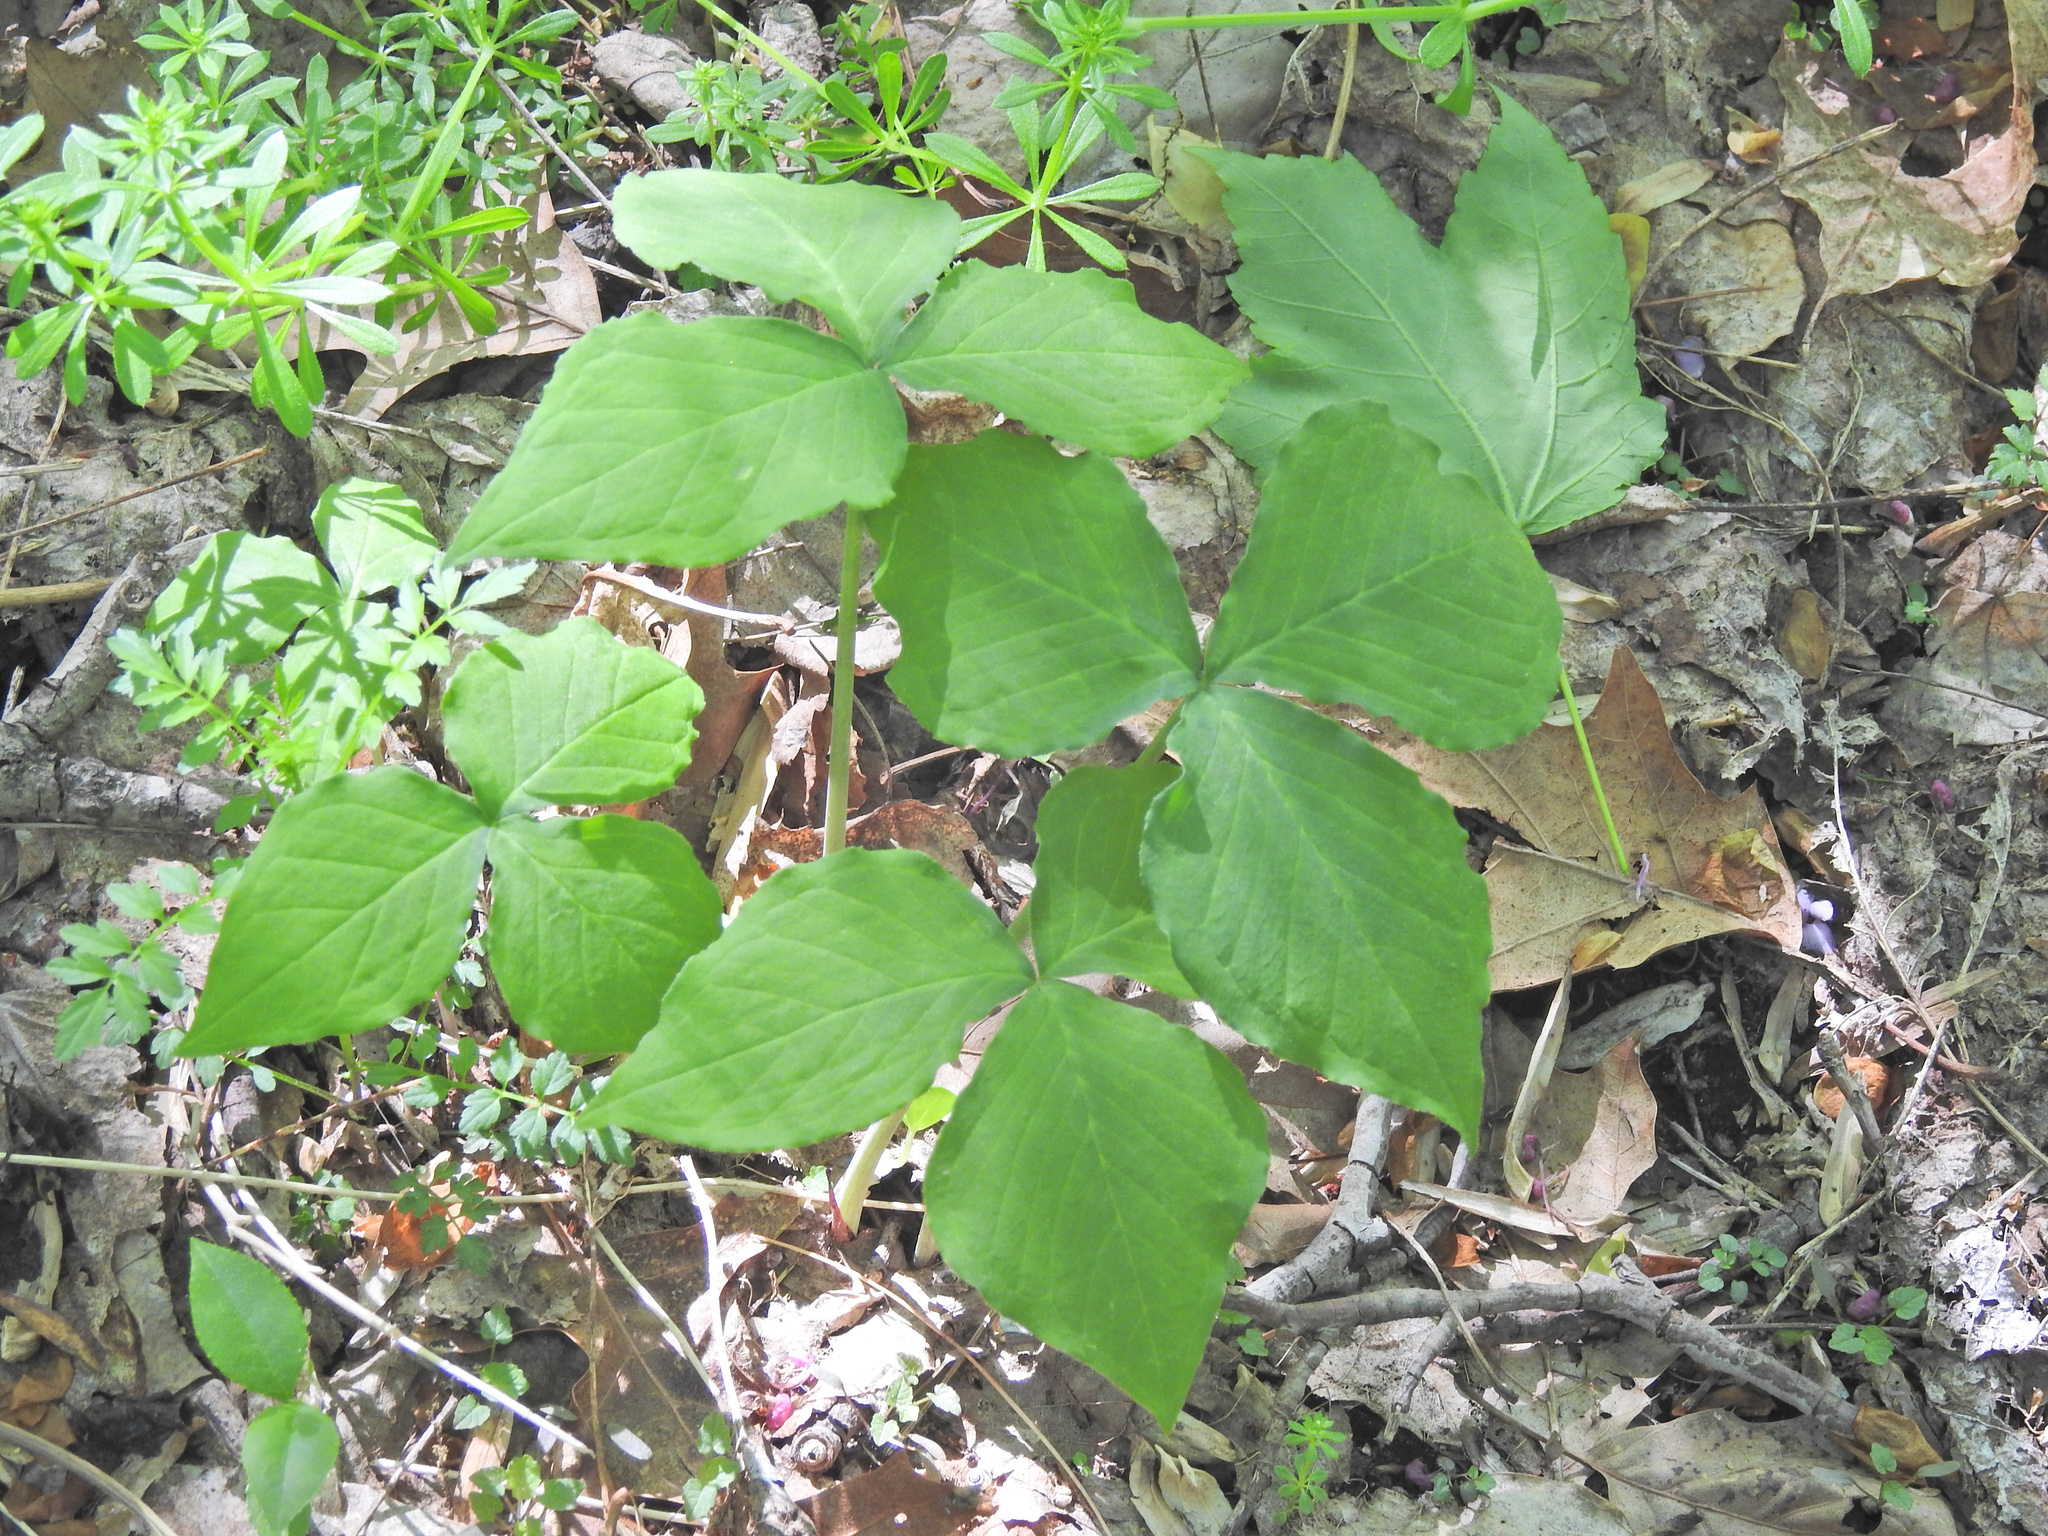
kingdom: Plantae
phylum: Tracheophyta
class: Liliopsida
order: Alismatales
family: Araceae
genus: Arisaema
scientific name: Arisaema triphyllum
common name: Jack-in-the-pulpit
